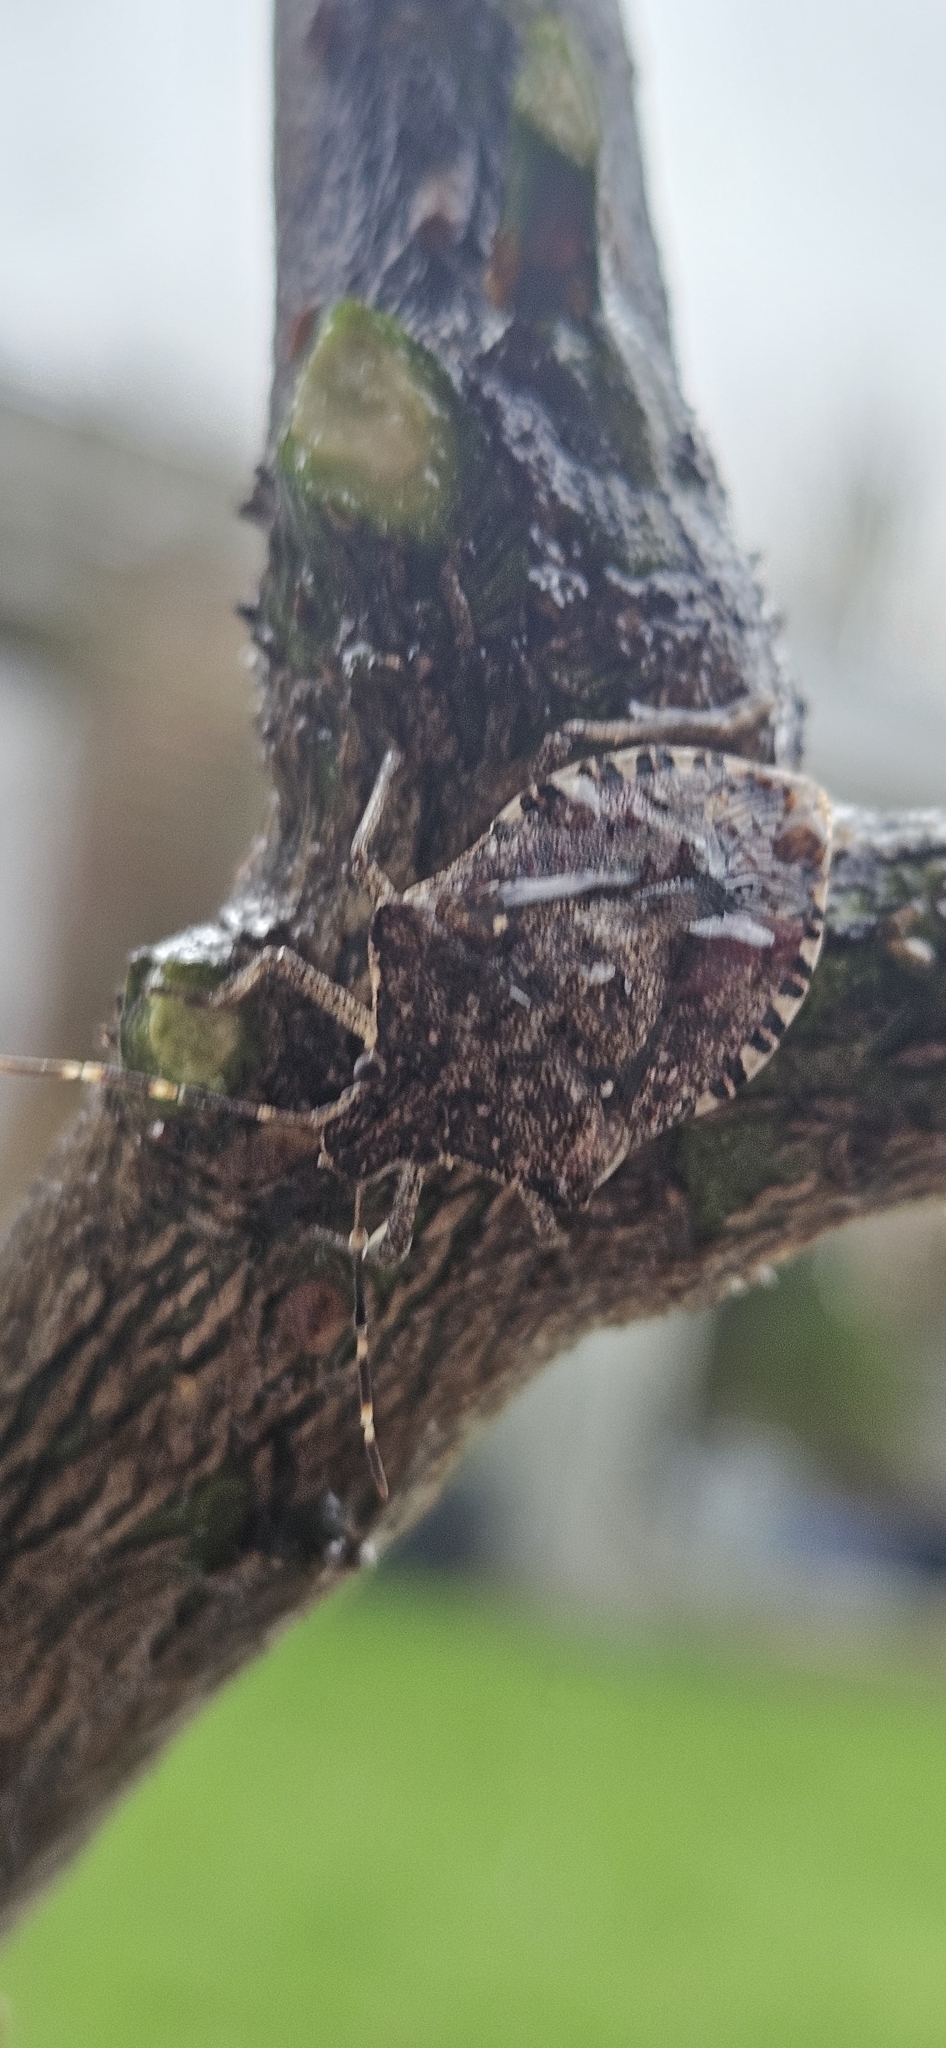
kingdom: Animalia
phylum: Arthropoda
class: Insecta
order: Hemiptera
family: Pentatomidae
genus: Halyomorpha
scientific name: Halyomorpha halys
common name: Brown marmorated stink bug
